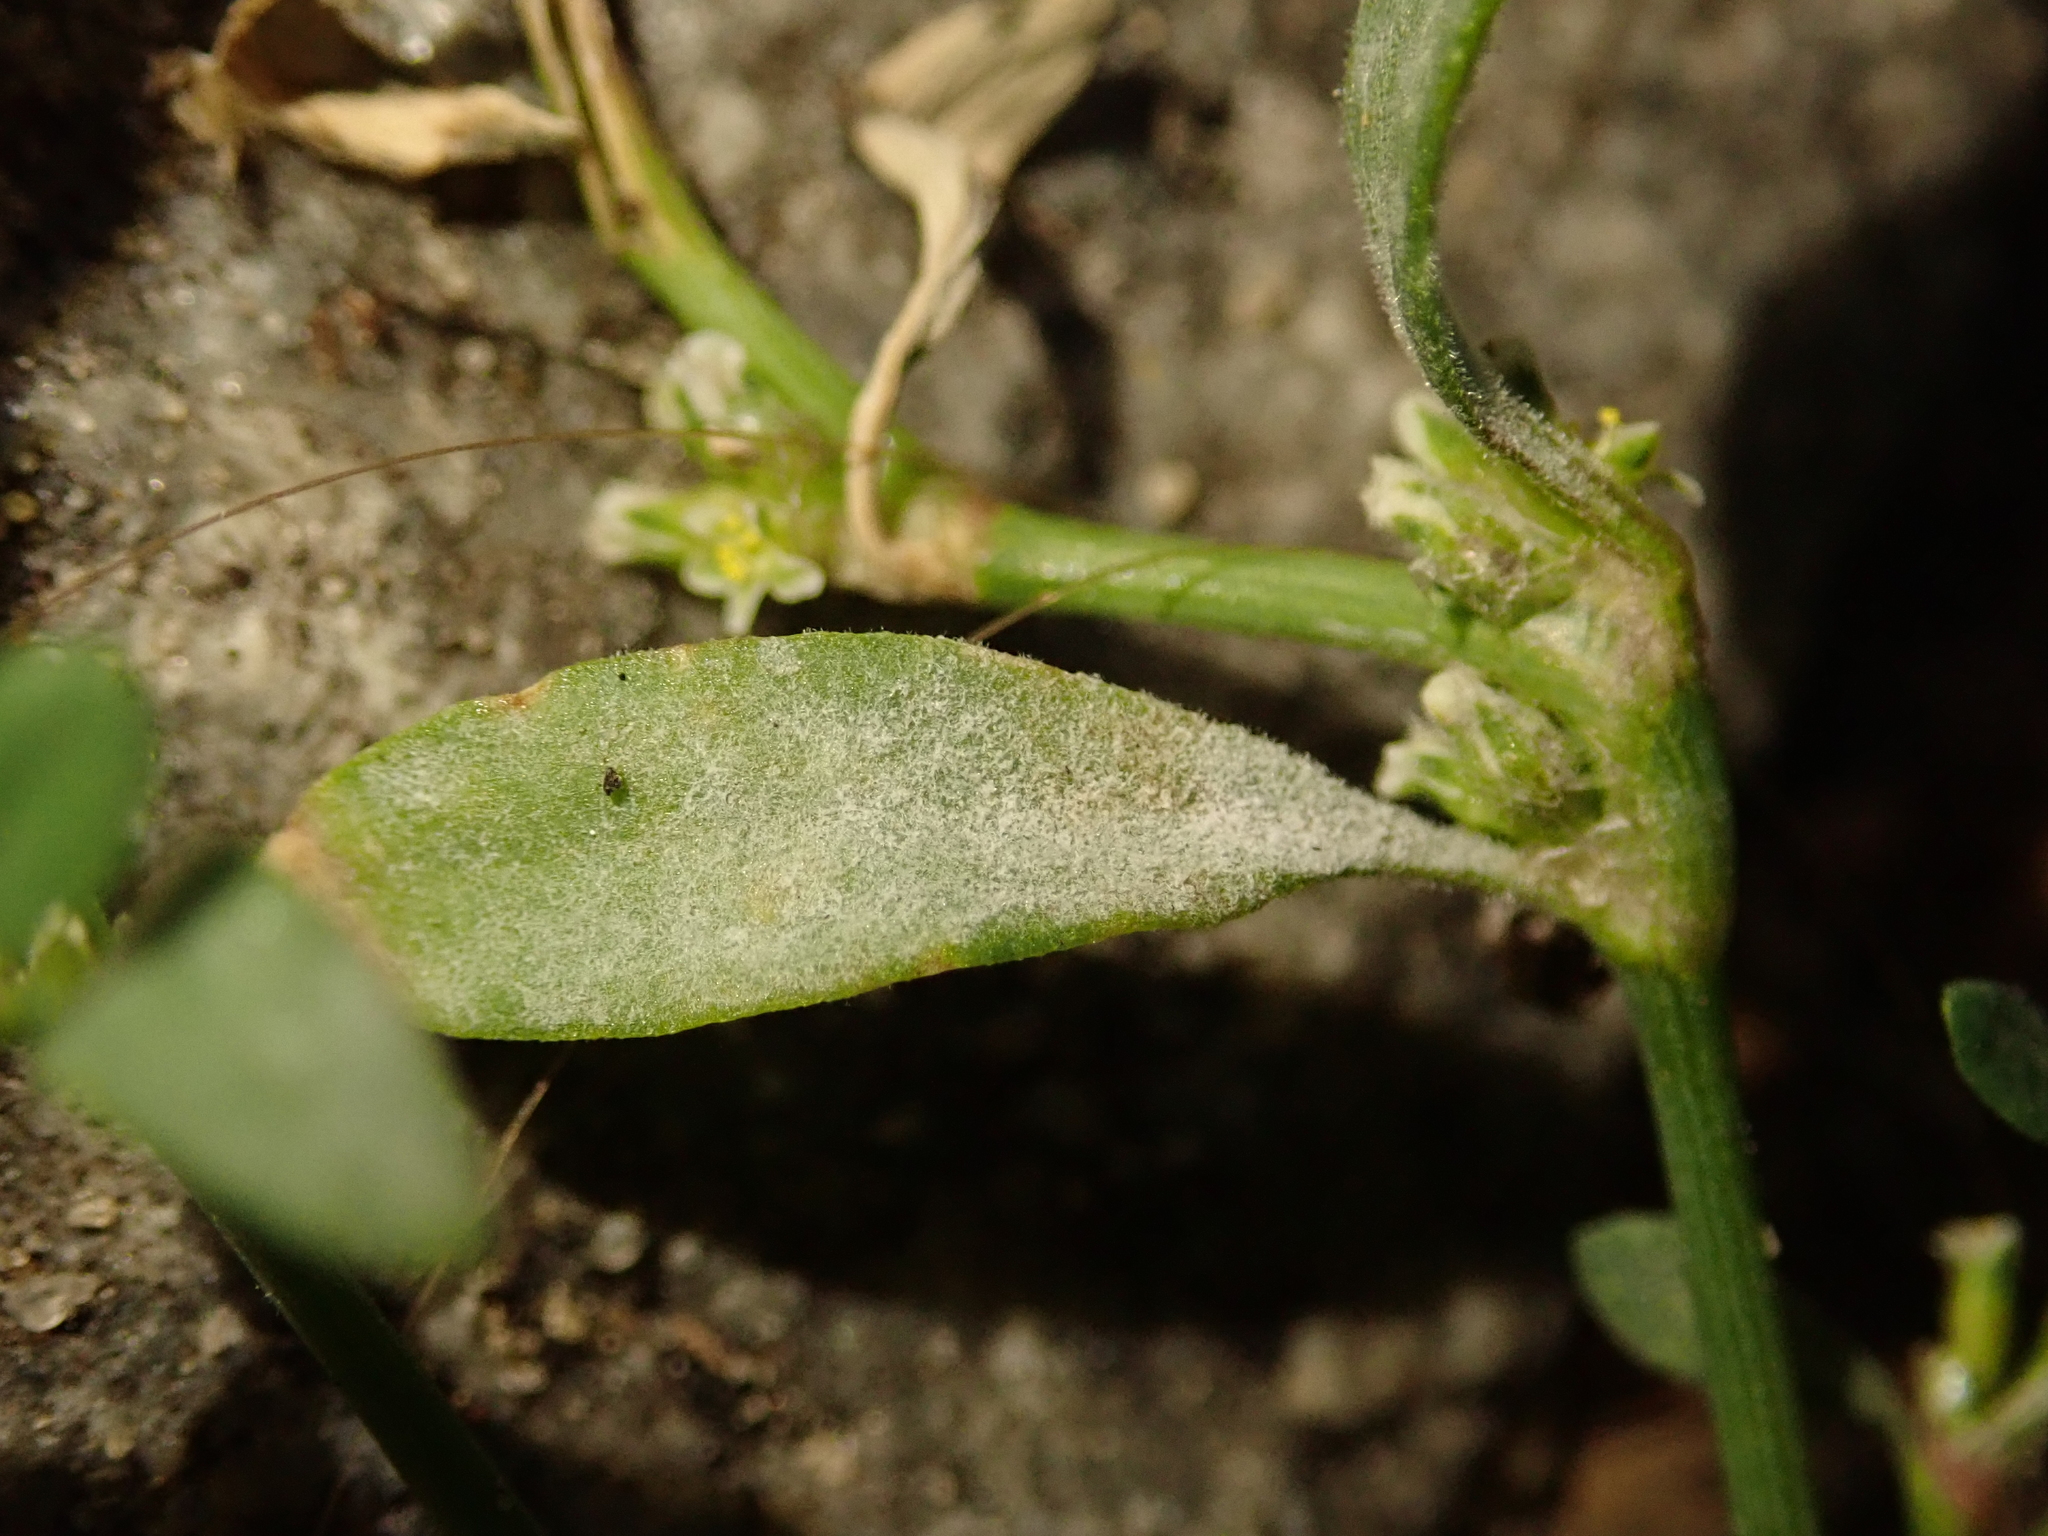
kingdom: Fungi
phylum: Ascomycota
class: Leotiomycetes
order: Helotiales
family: Erysiphaceae
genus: Erysiphe
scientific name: Erysiphe polygoni
